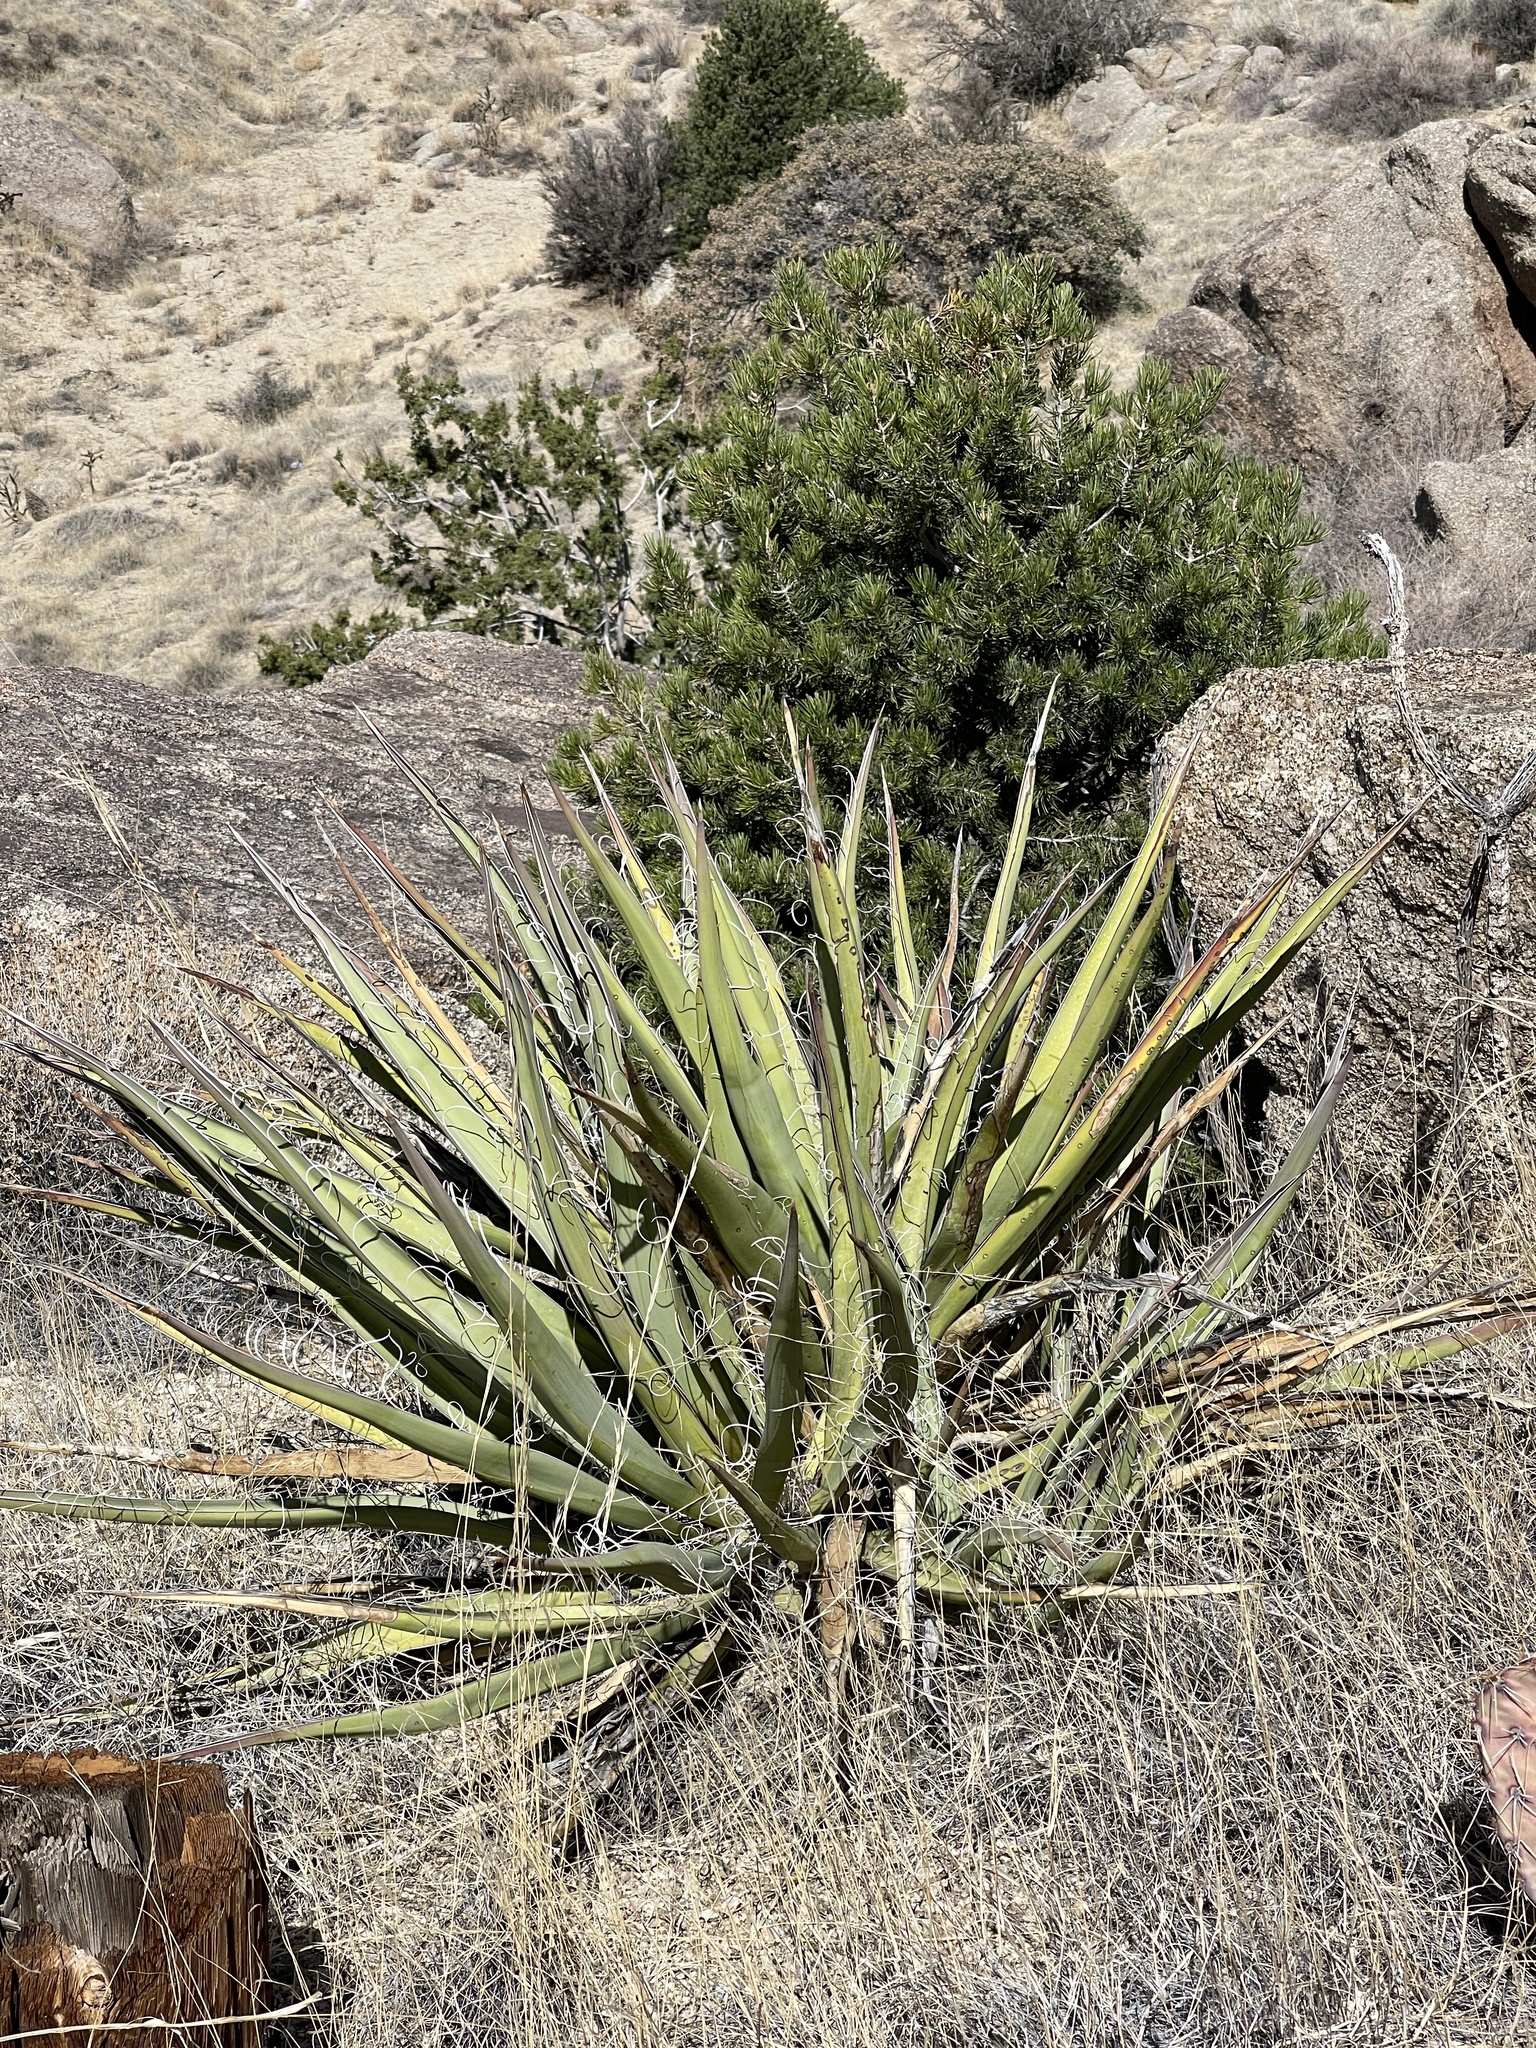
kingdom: Plantae
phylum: Tracheophyta
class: Liliopsida
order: Asparagales
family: Asparagaceae
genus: Yucca
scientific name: Yucca baccata
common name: Banana yucca
